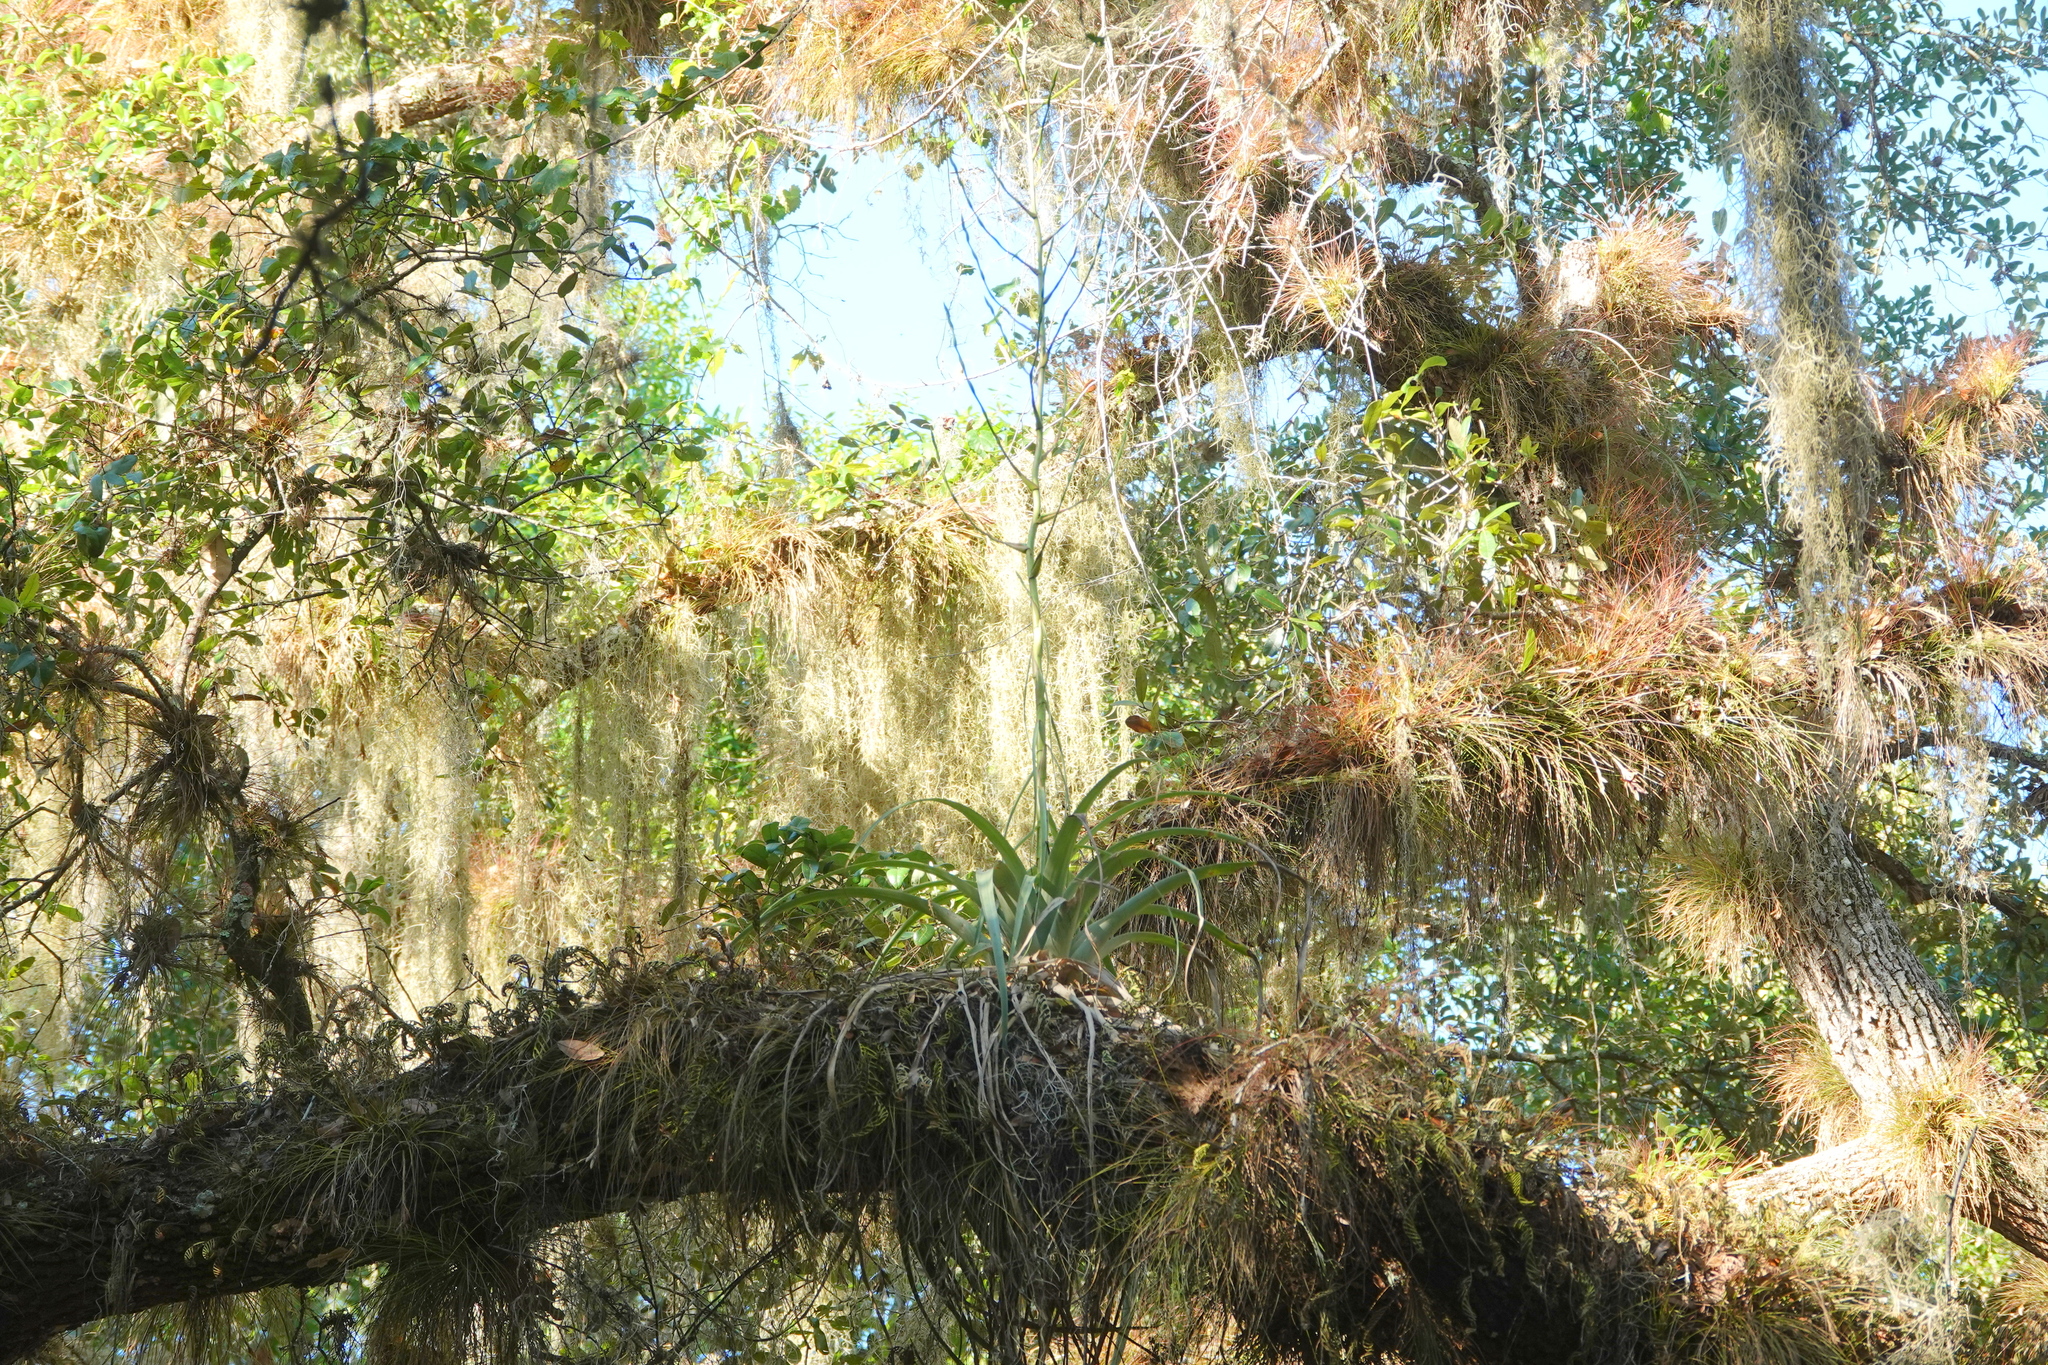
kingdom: Plantae
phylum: Tracheophyta
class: Liliopsida
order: Poales
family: Bromeliaceae
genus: Tillandsia
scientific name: Tillandsia utriculata
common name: Wild pine
